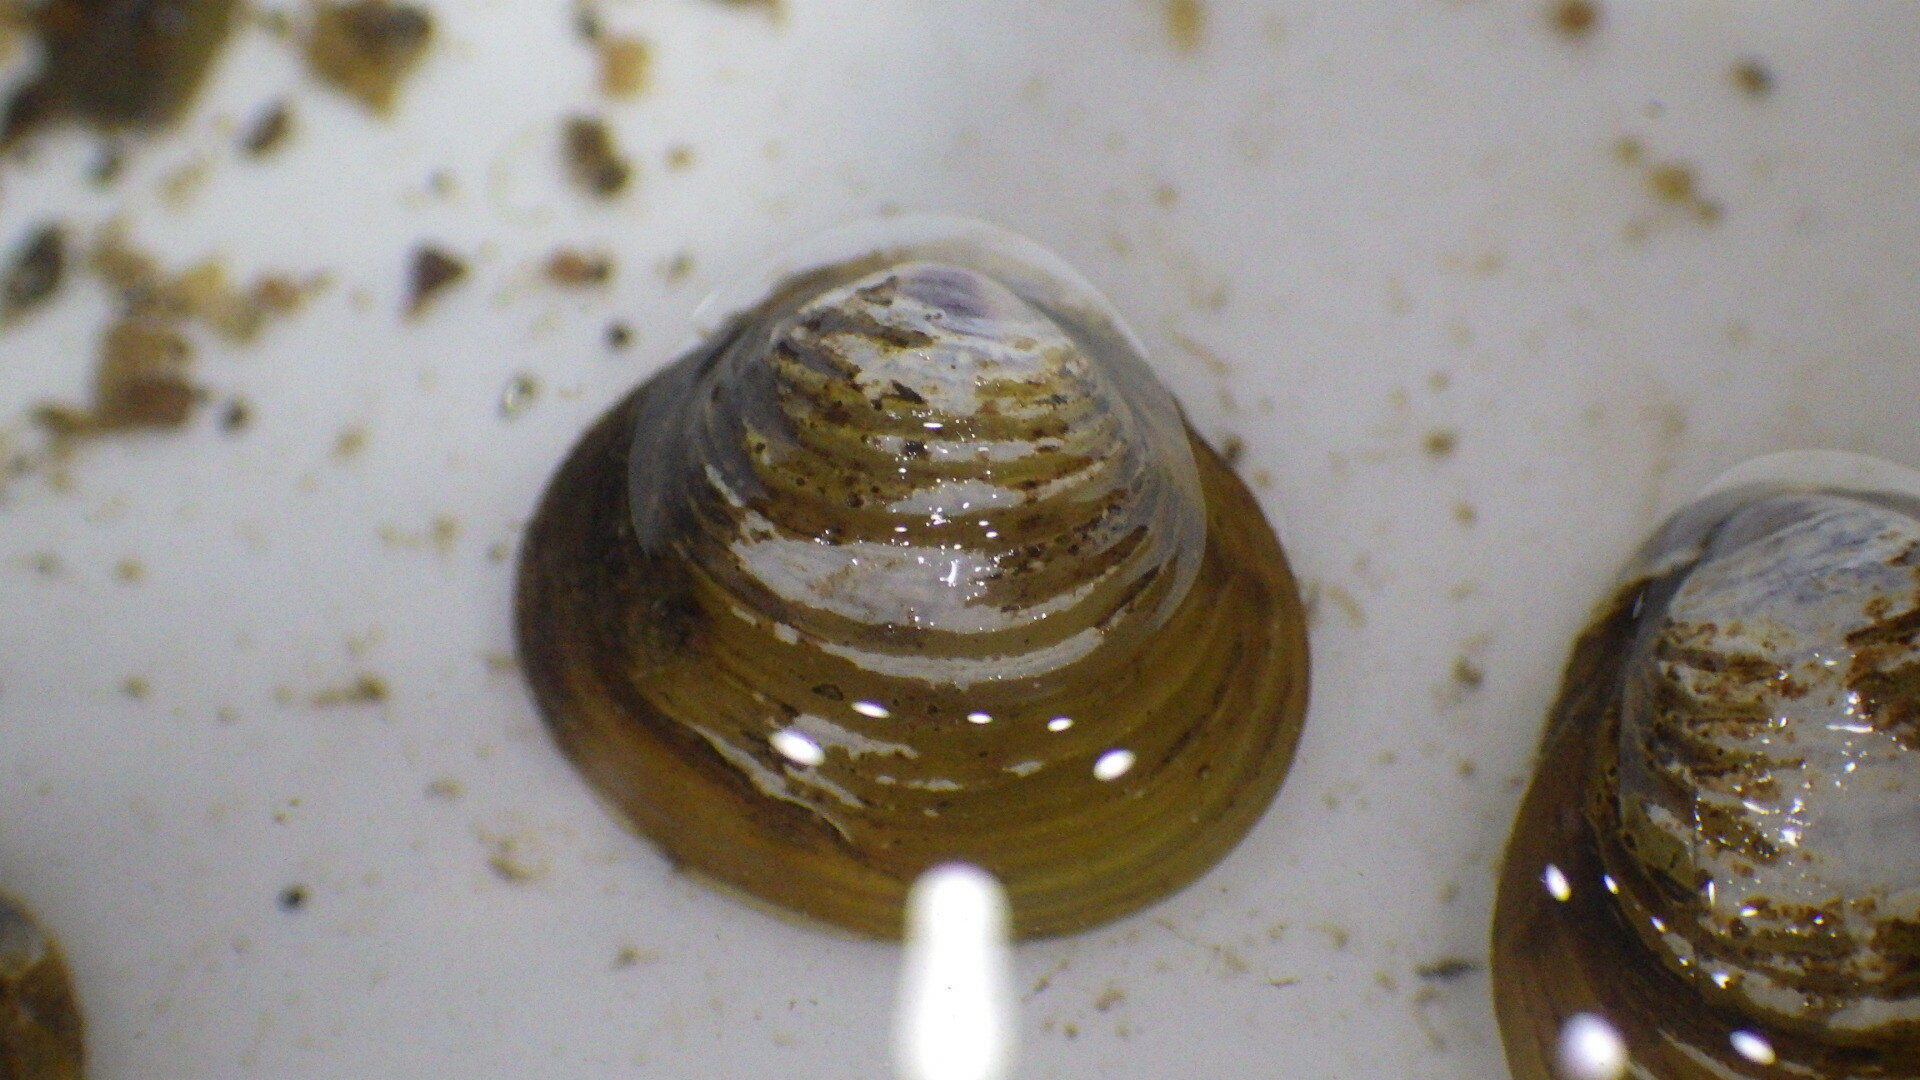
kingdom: Animalia
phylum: Mollusca
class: Bivalvia
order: Venerida
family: Cyrenidae
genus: Corbicula
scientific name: Corbicula fluminea
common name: Asian clam
